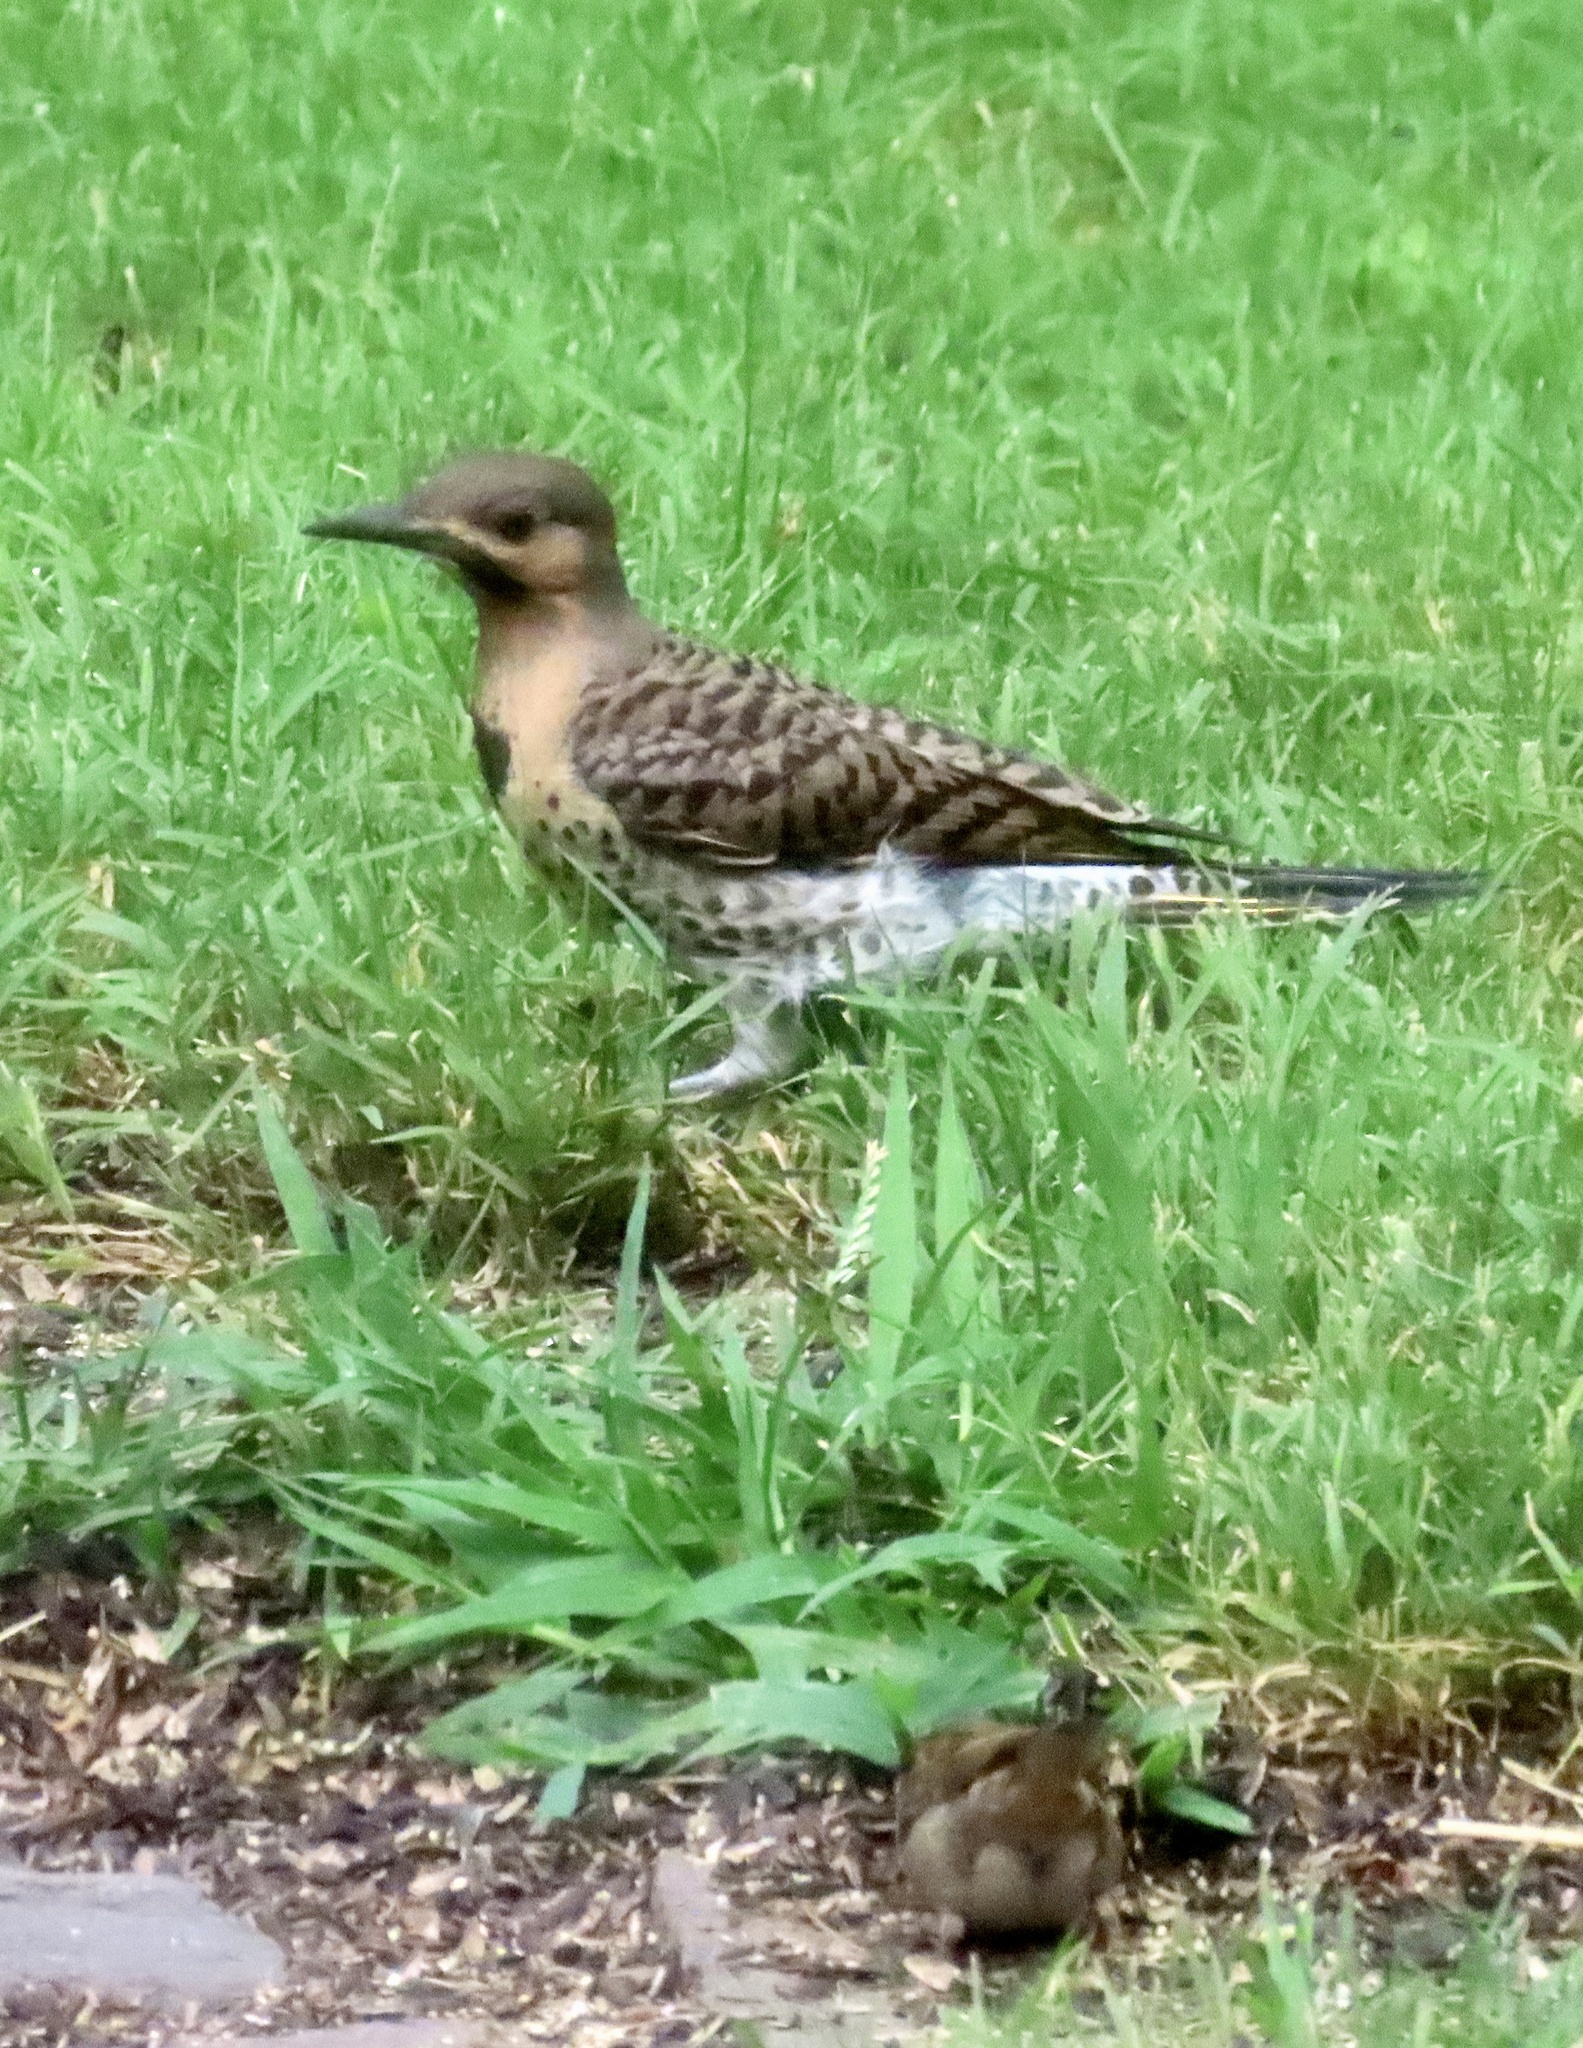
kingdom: Animalia
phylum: Chordata
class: Aves
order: Piciformes
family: Picidae
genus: Colaptes
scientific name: Colaptes auratus
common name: Northern flicker
